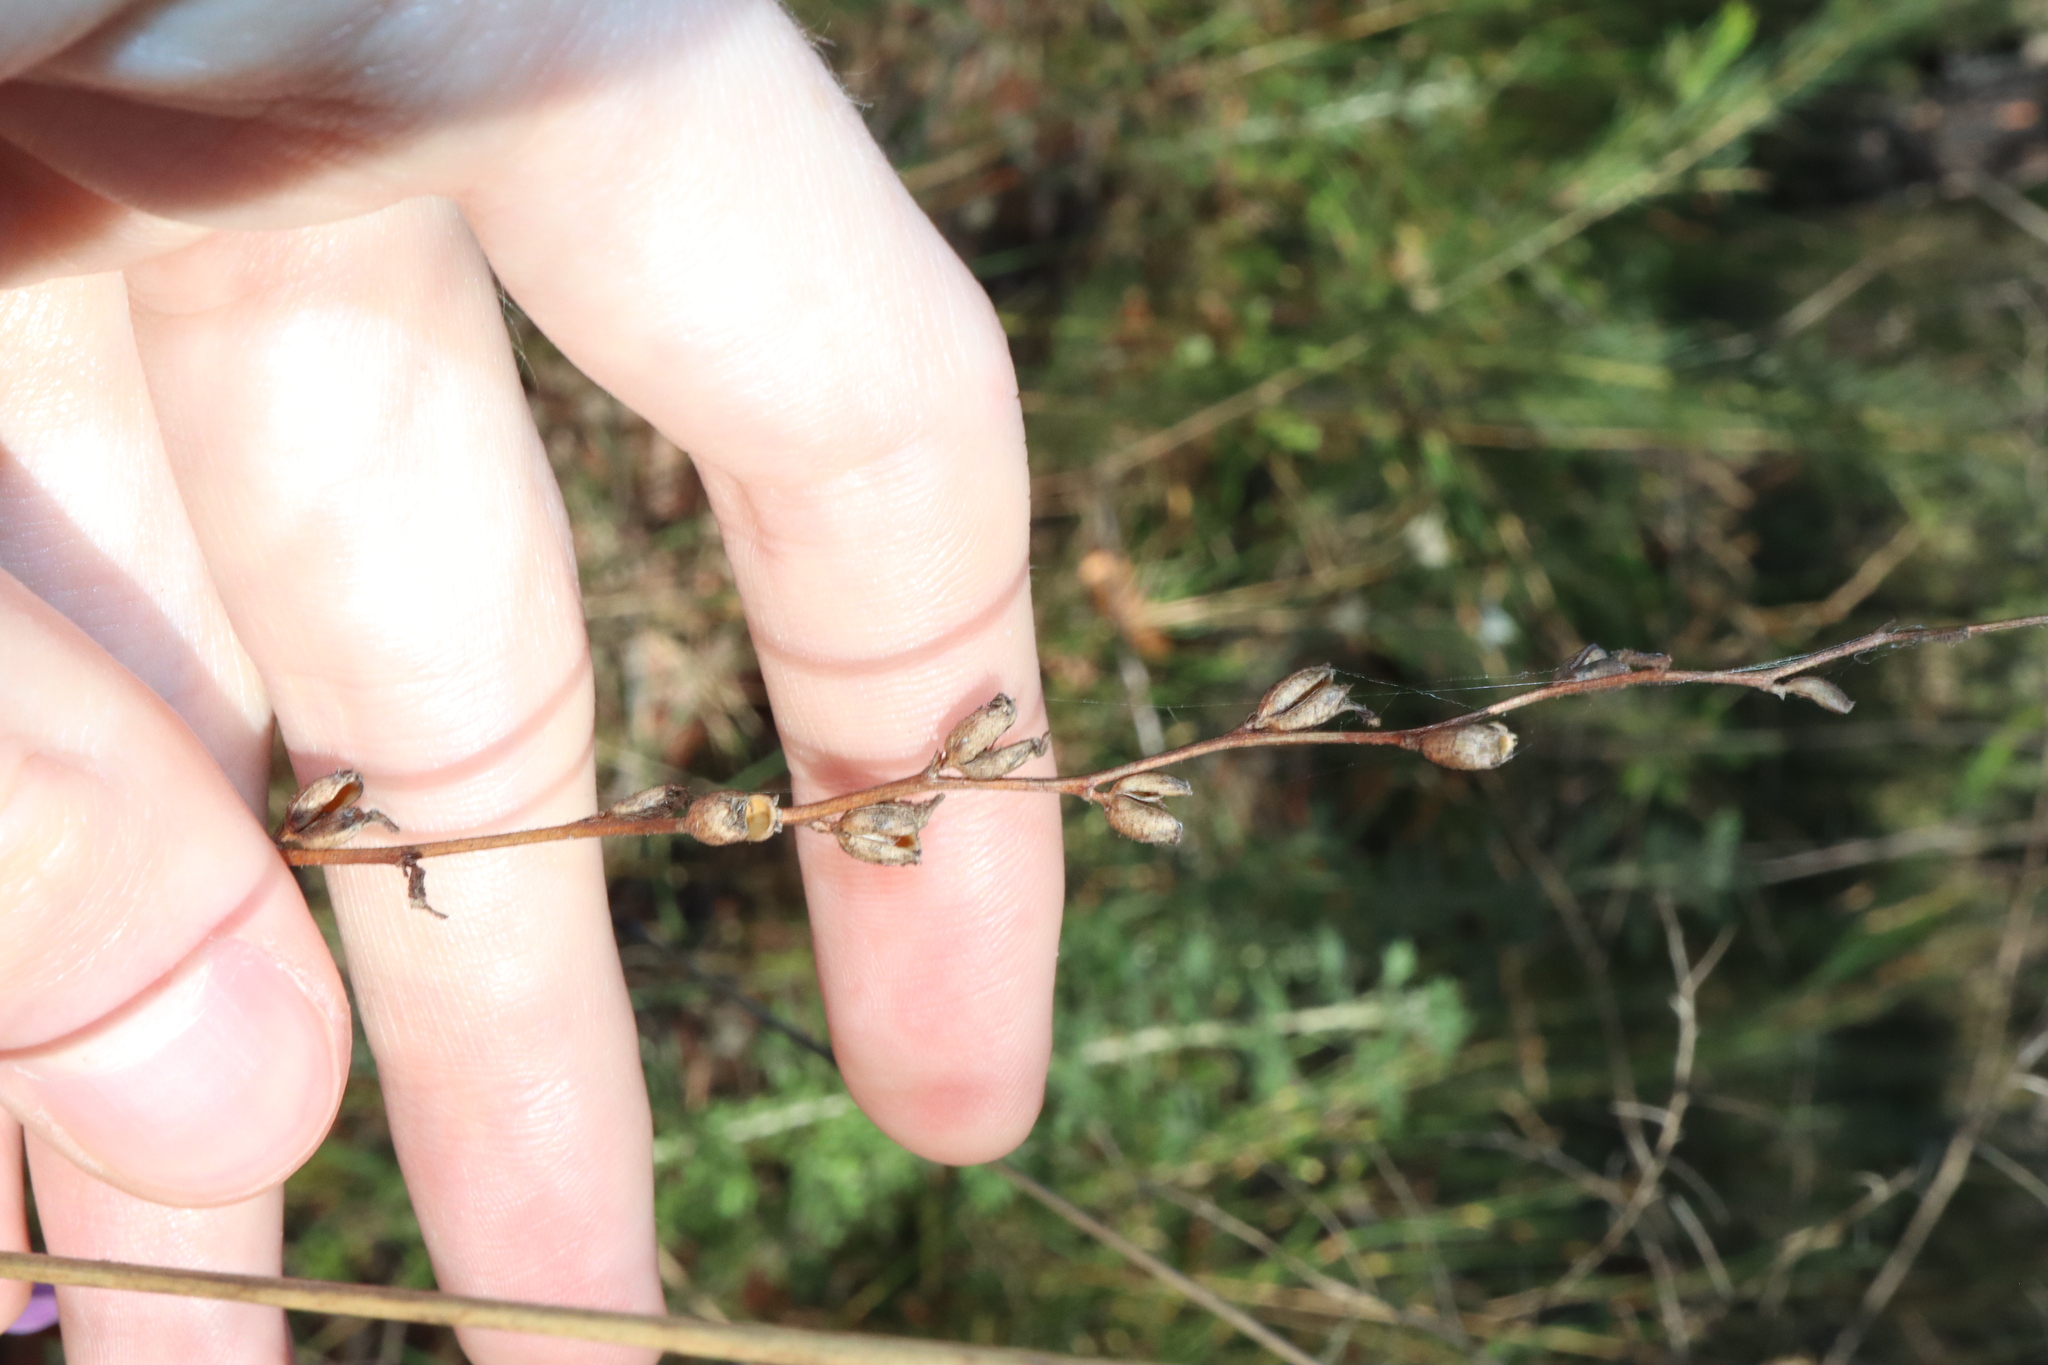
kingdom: Plantae
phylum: Tracheophyta
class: Magnoliopsida
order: Asterales
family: Stylidiaceae
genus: Stylidium
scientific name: Stylidium graminifolium
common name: Grass triggerplant
